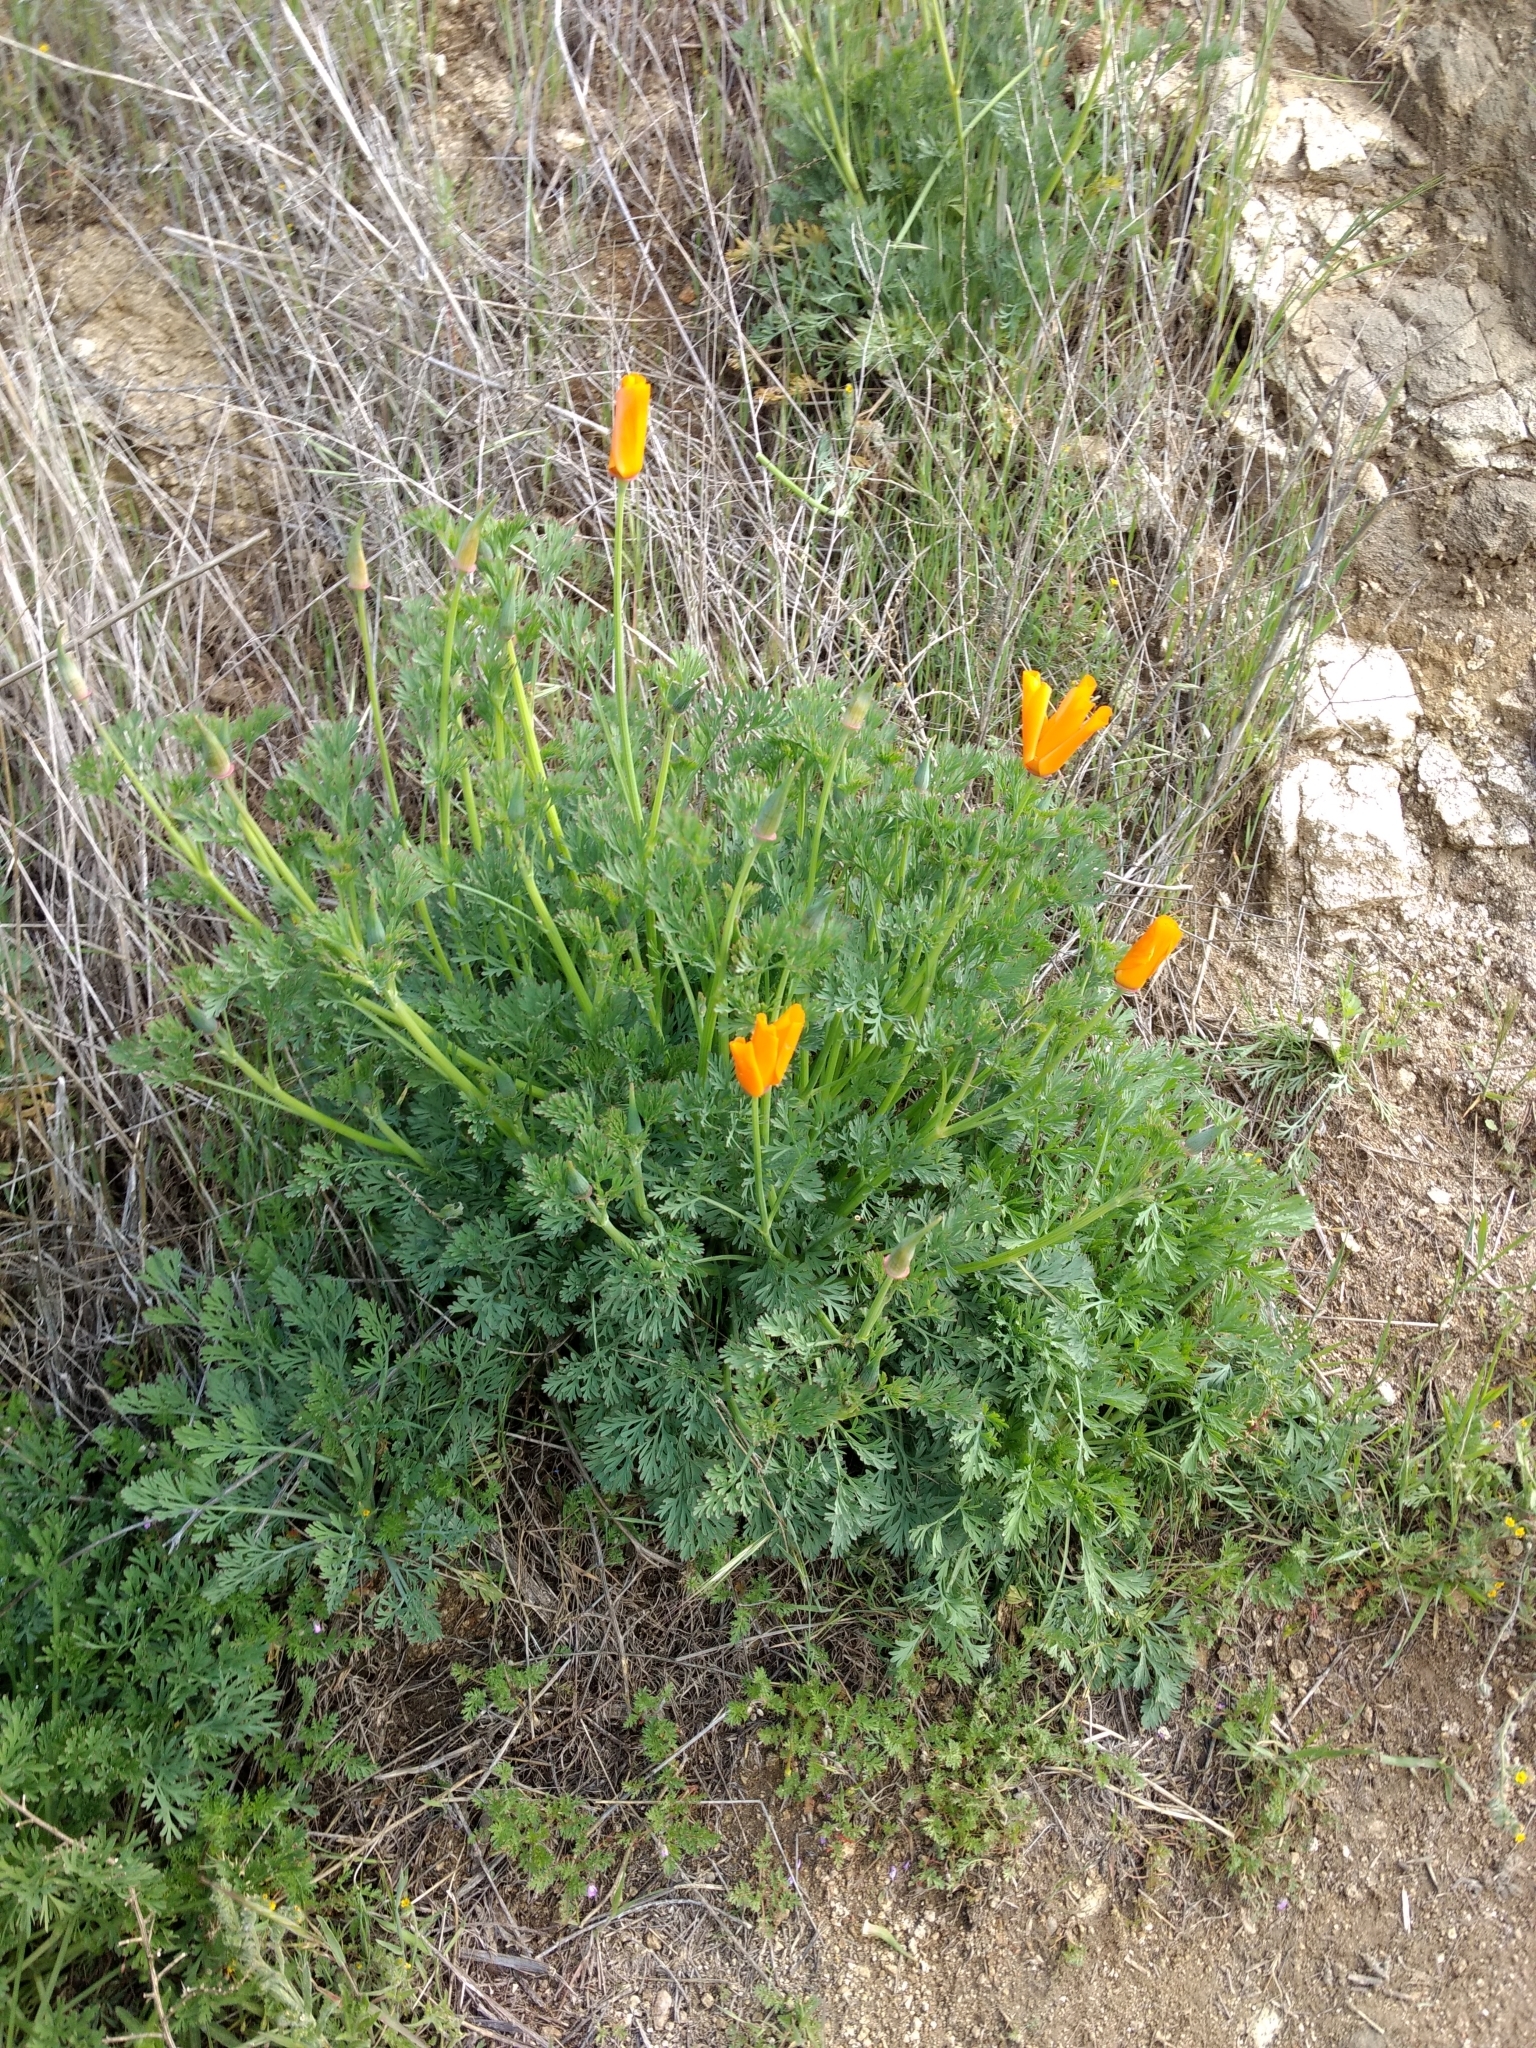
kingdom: Plantae
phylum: Tracheophyta
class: Magnoliopsida
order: Ranunculales
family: Papaveraceae
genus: Eschscholzia
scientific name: Eschscholzia californica
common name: California poppy
